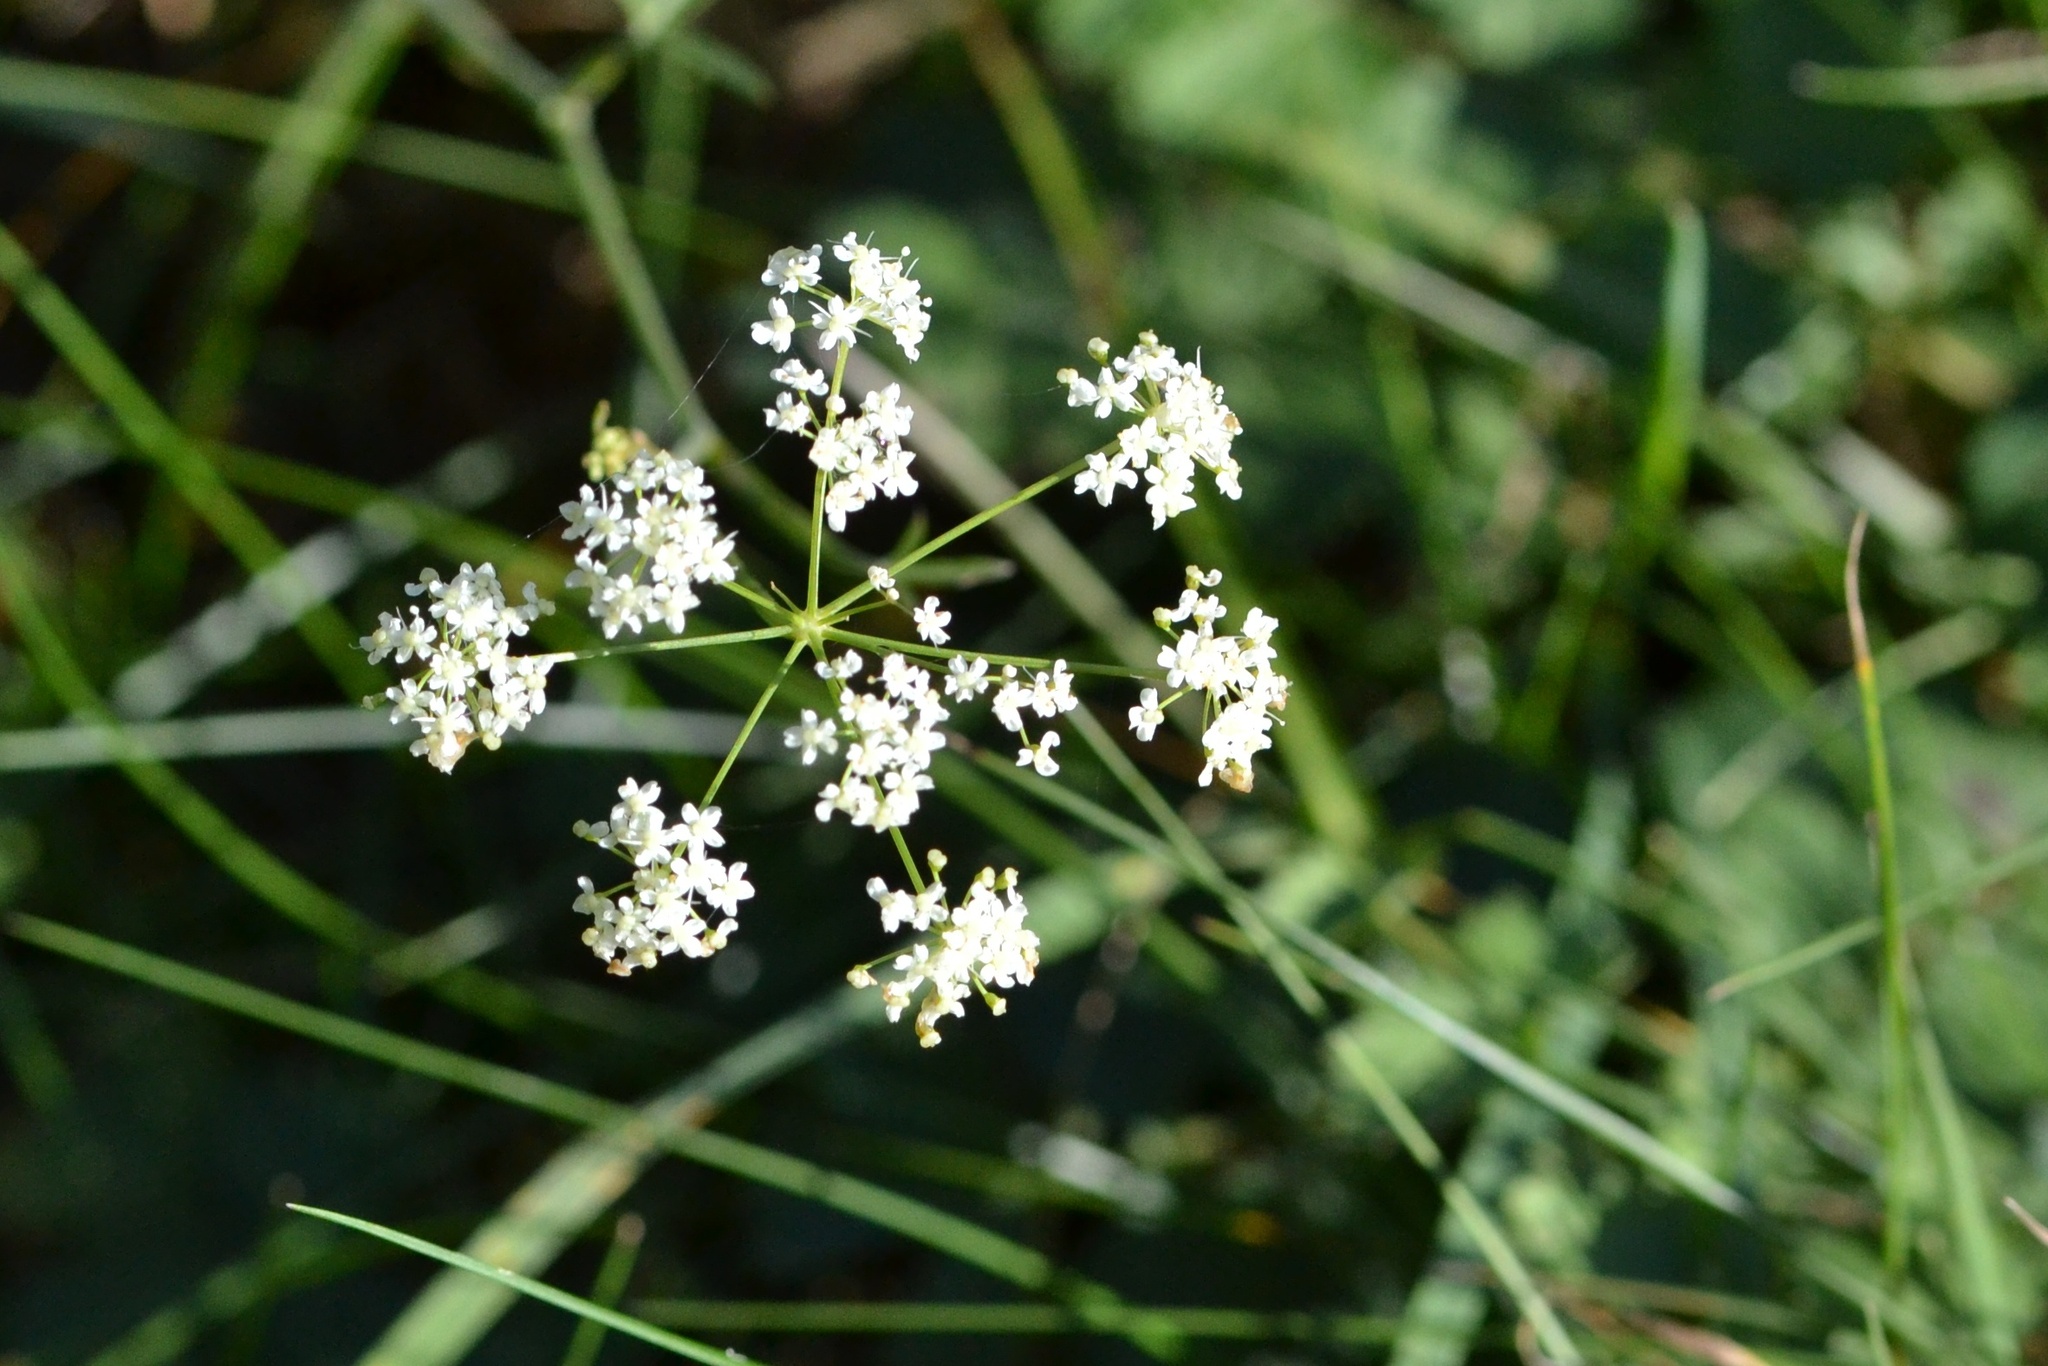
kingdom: Plantae
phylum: Tracheophyta
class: Magnoliopsida
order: Apiales
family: Apiaceae
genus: Pimpinella
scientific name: Pimpinella saxifraga
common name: Burnet-saxifrage
